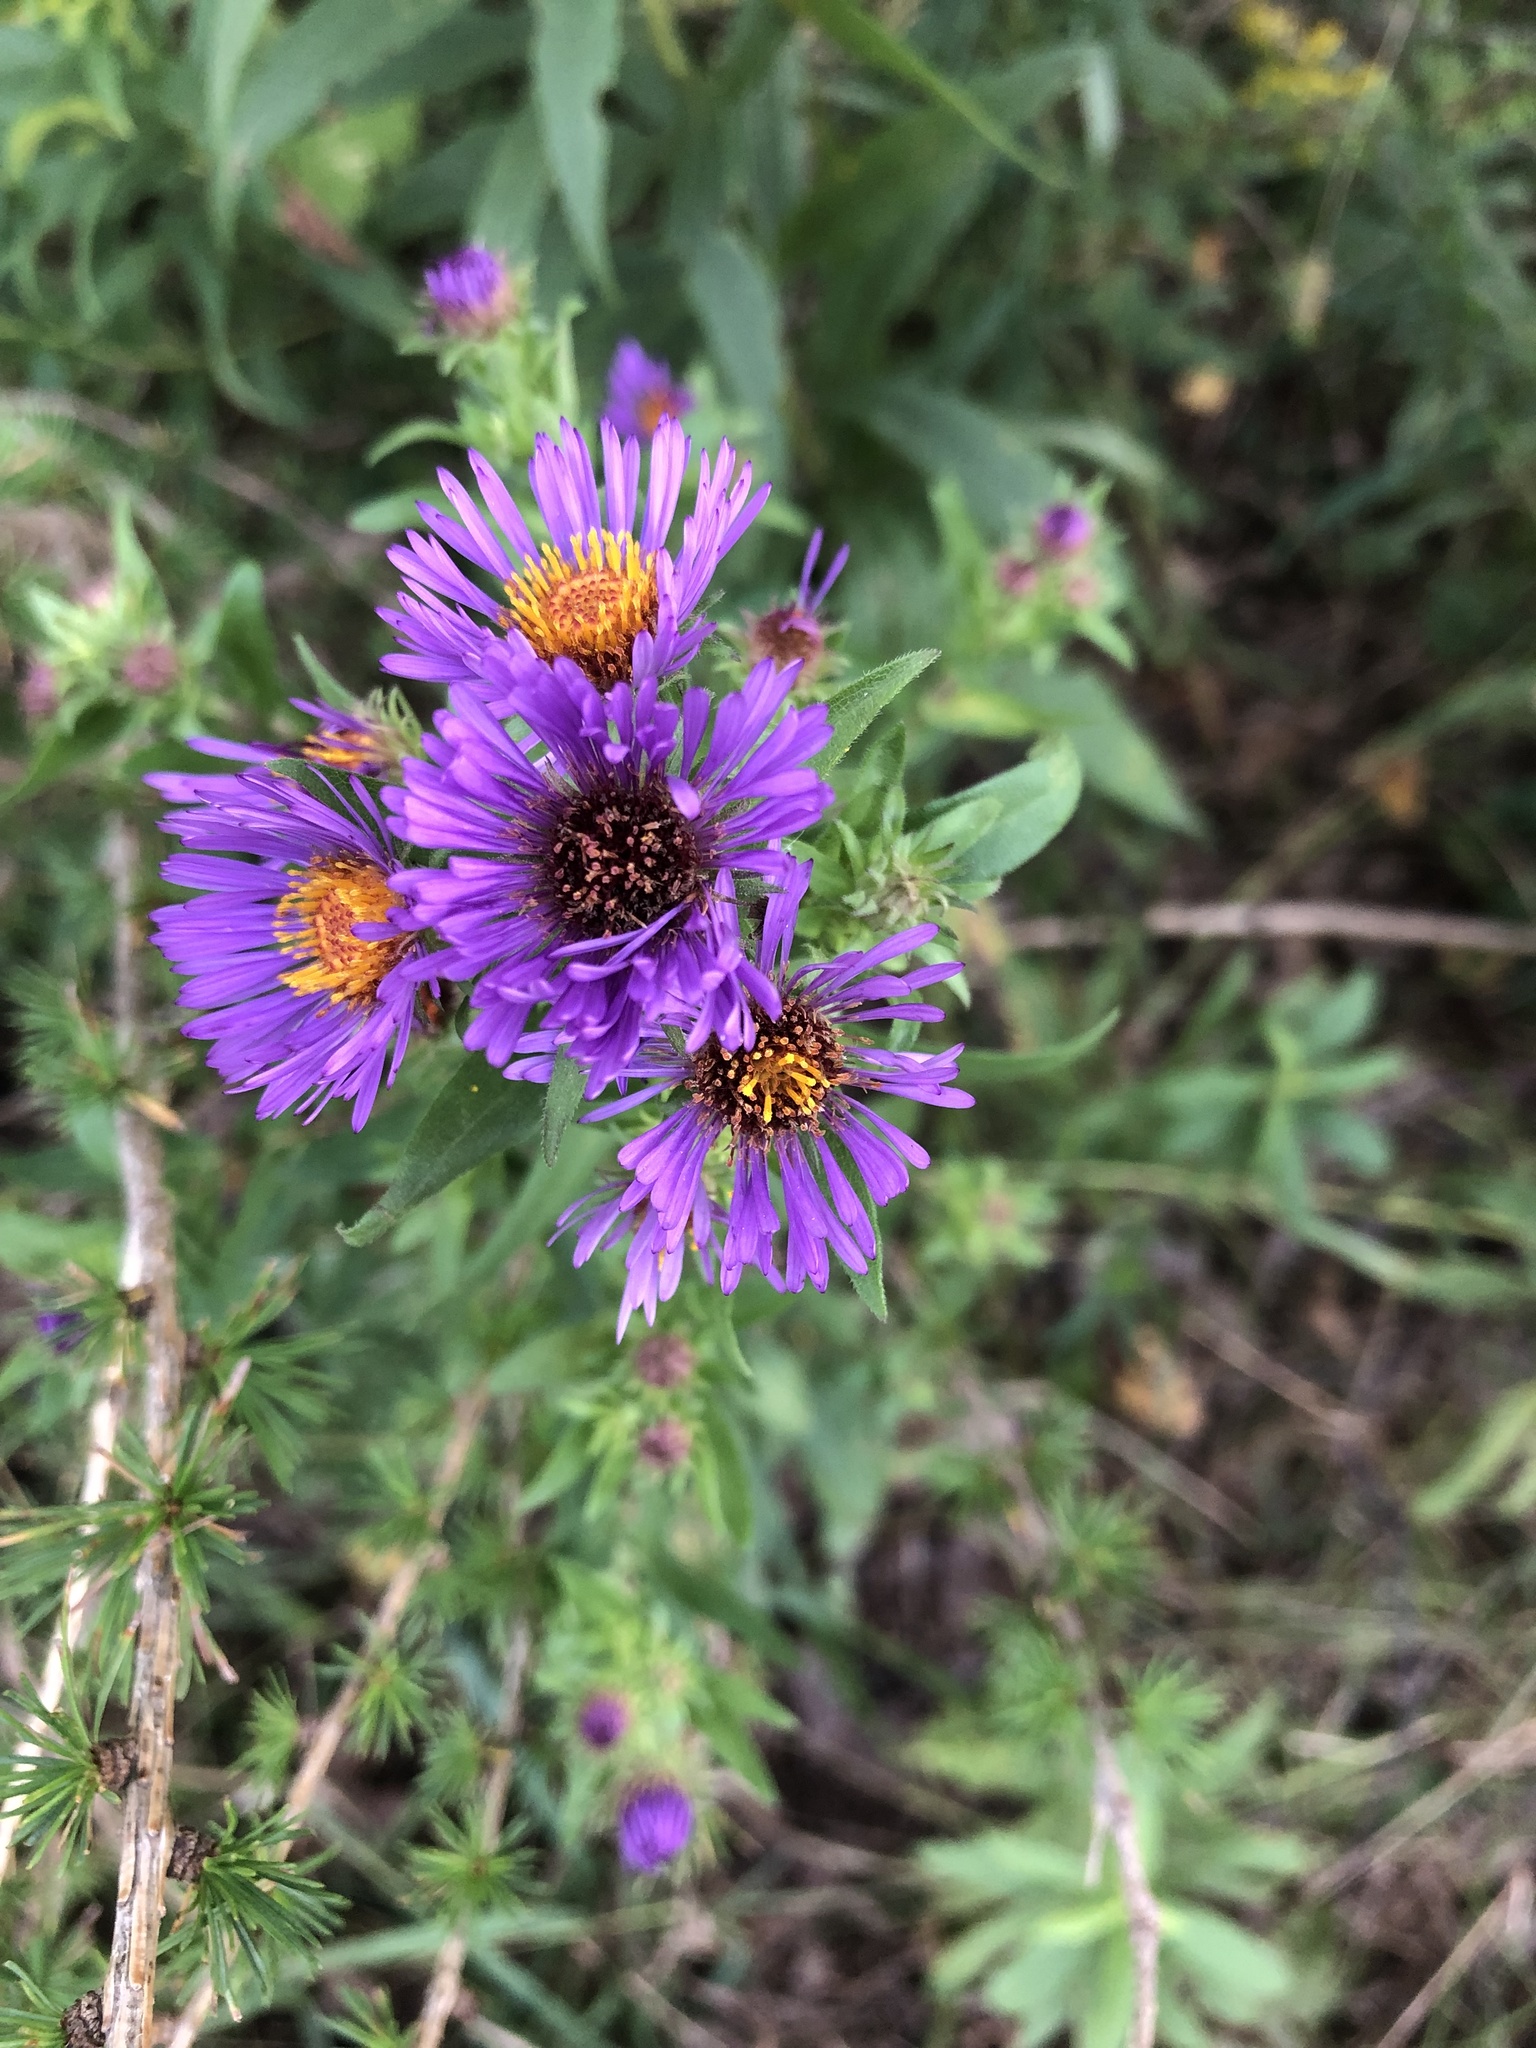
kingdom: Plantae
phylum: Tracheophyta
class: Magnoliopsida
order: Asterales
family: Asteraceae
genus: Symphyotrichum
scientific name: Symphyotrichum novae-angliae
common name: Michaelmas daisy
